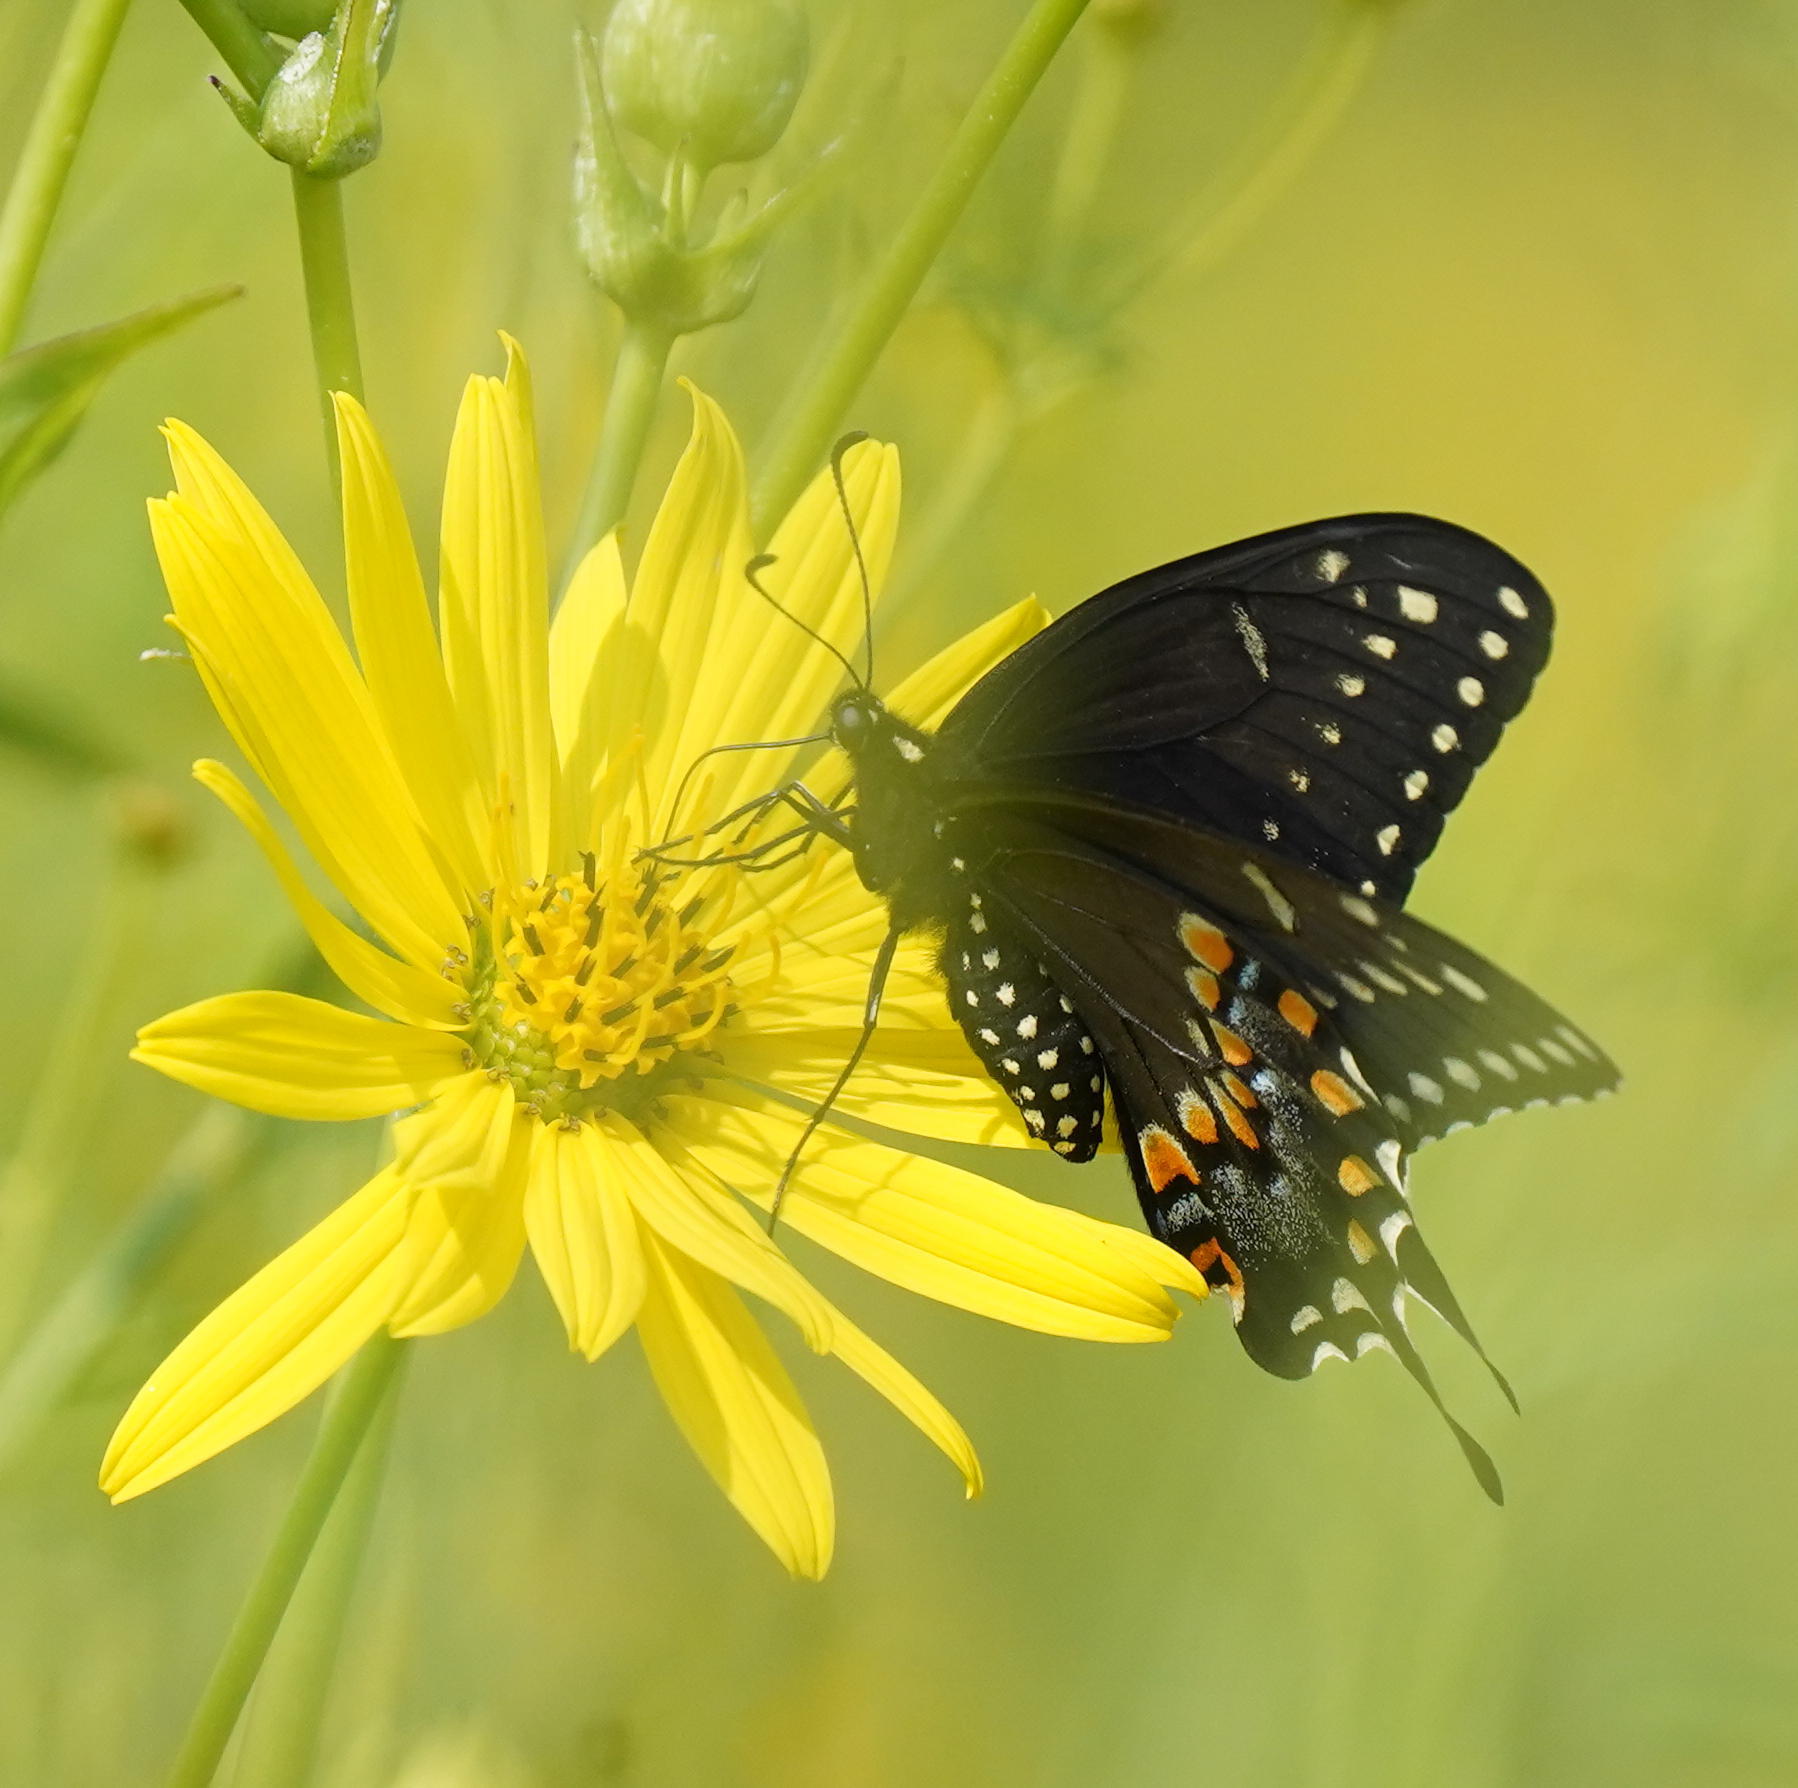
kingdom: Animalia
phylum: Arthropoda
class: Insecta
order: Lepidoptera
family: Papilionidae
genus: Papilio
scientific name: Papilio polyxenes
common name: Black swallowtail
